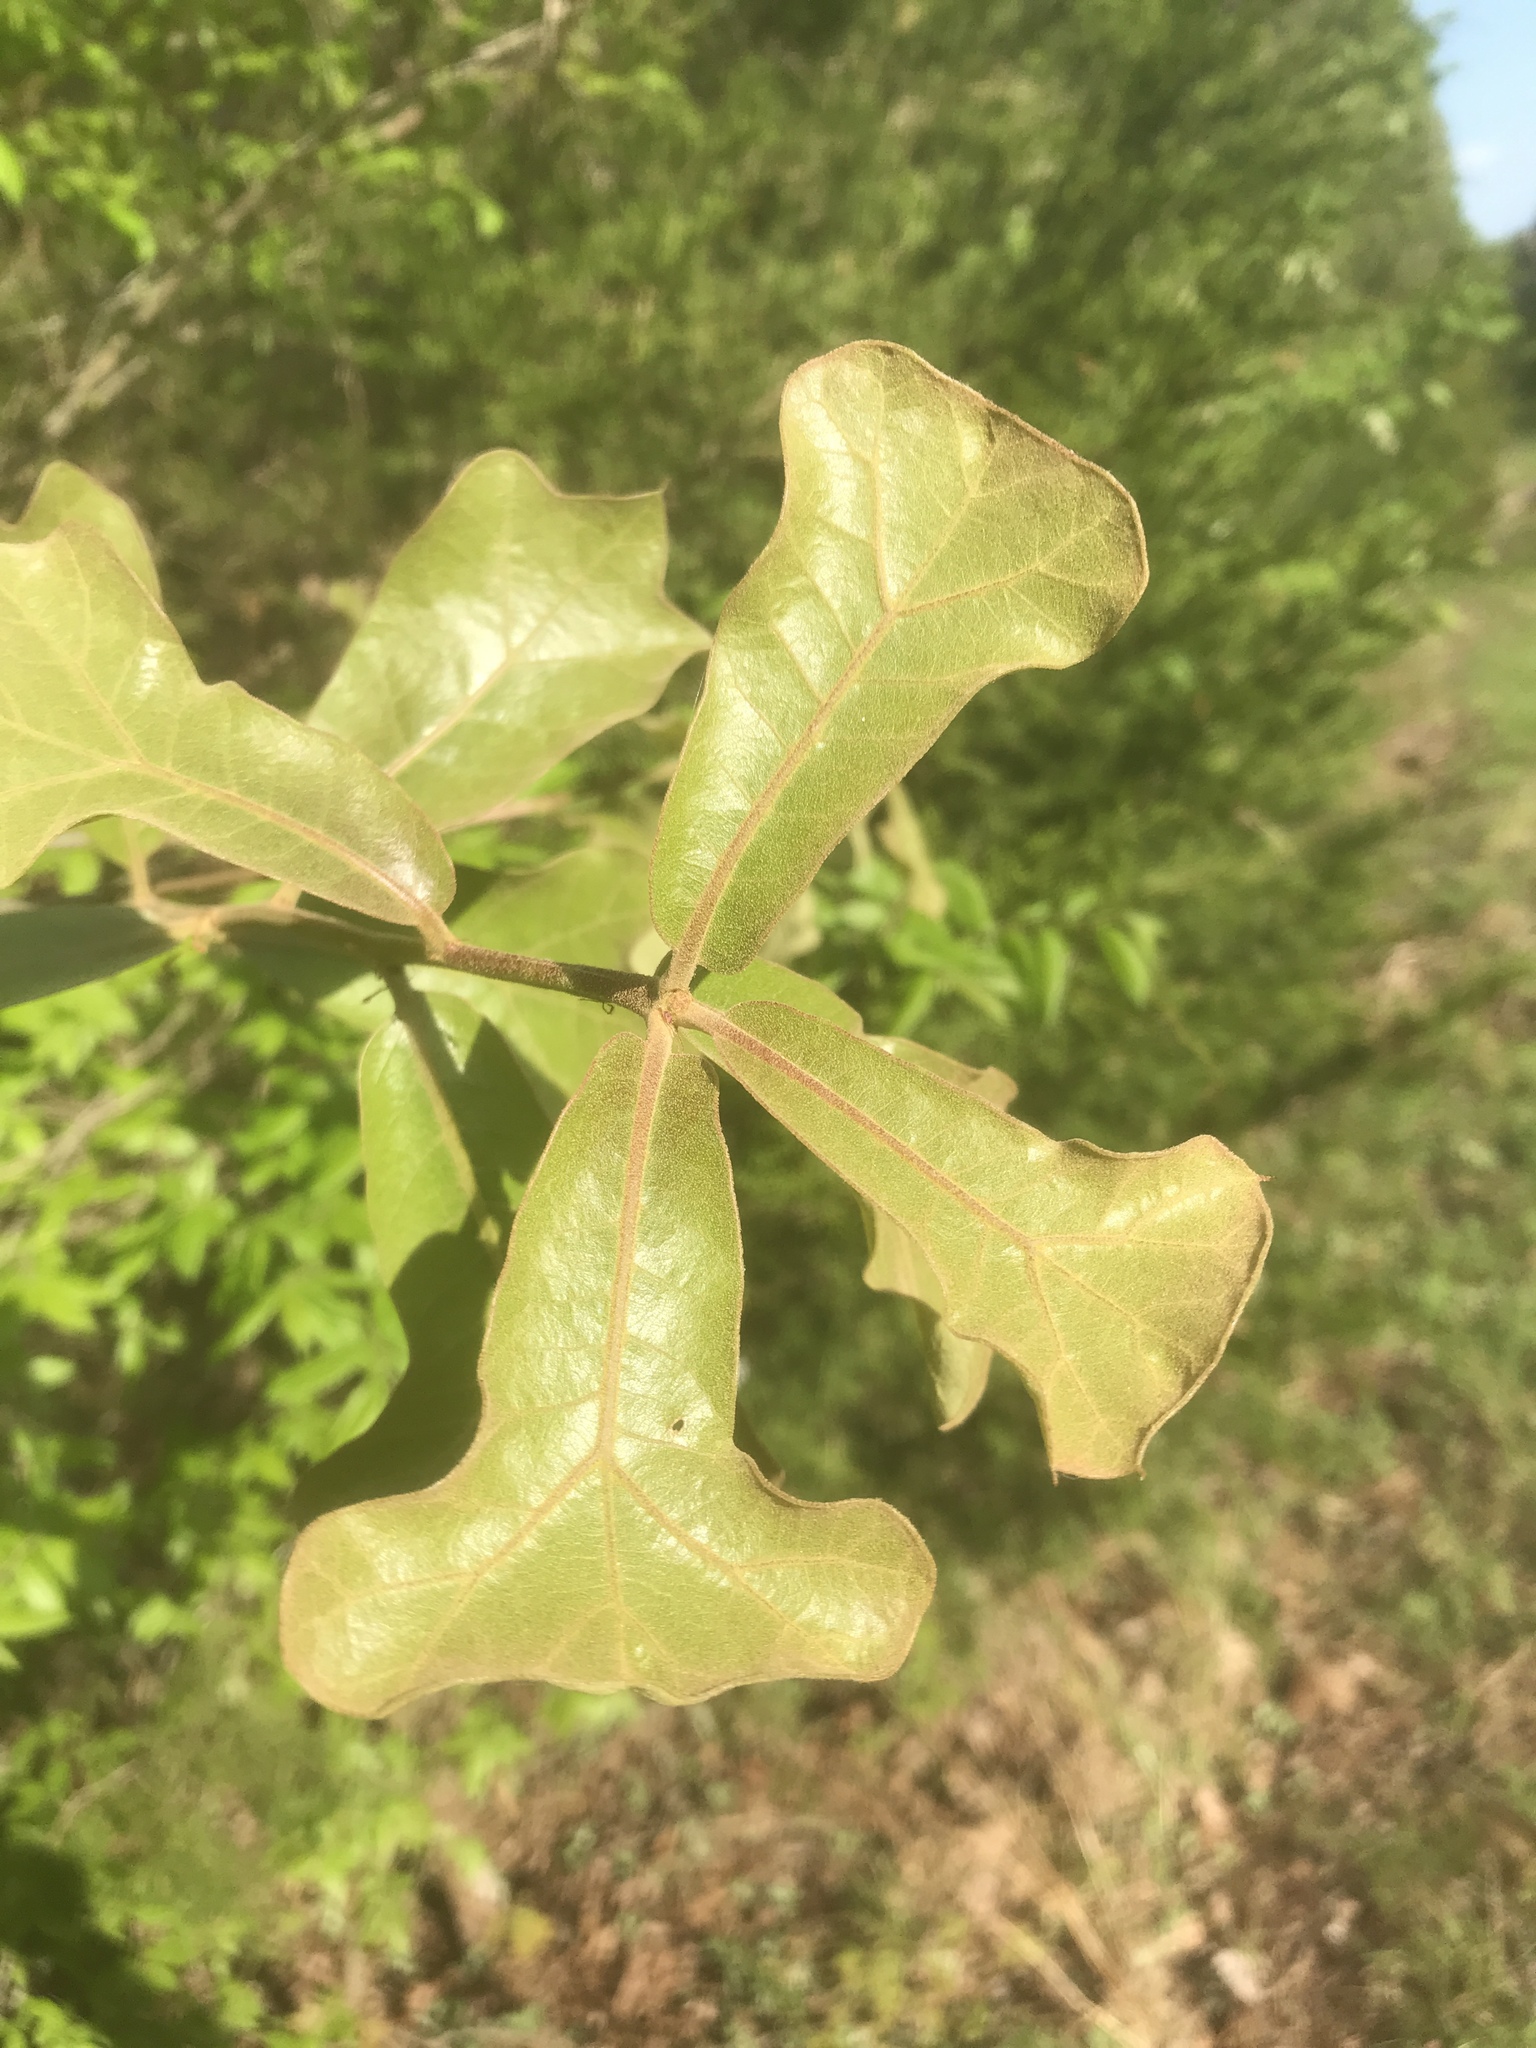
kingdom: Plantae
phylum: Tracheophyta
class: Magnoliopsida
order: Fagales
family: Fagaceae
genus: Quercus
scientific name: Quercus marilandica
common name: Blackjack oak
